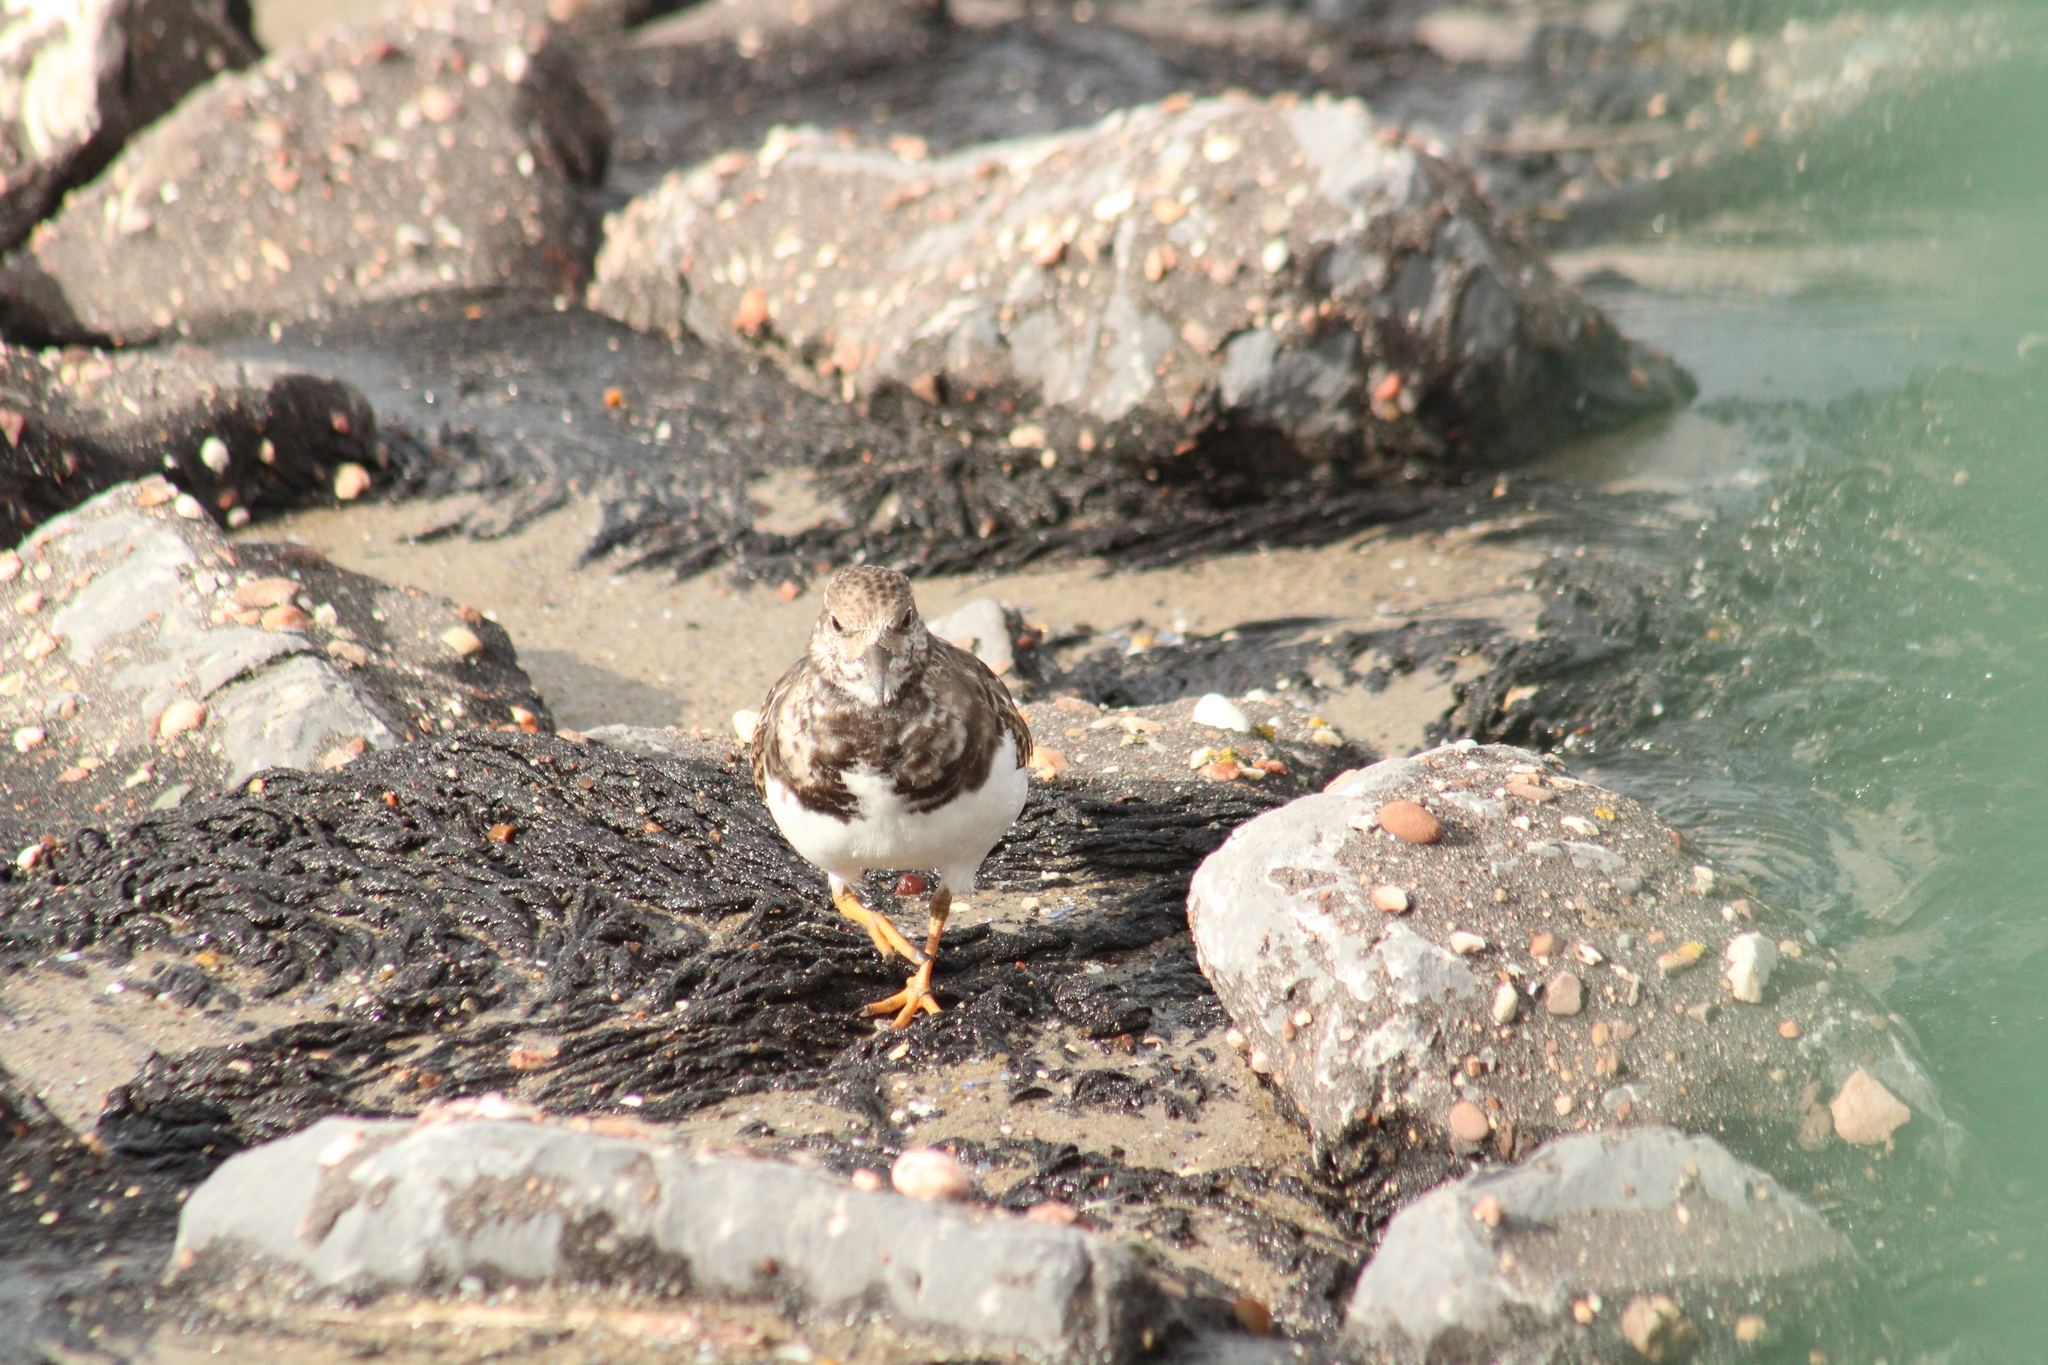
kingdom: Animalia
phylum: Chordata
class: Aves
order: Charadriiformes
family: Scolopacidae
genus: Arenaria
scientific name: Arenaria interpres
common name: Ruddy turnstone
